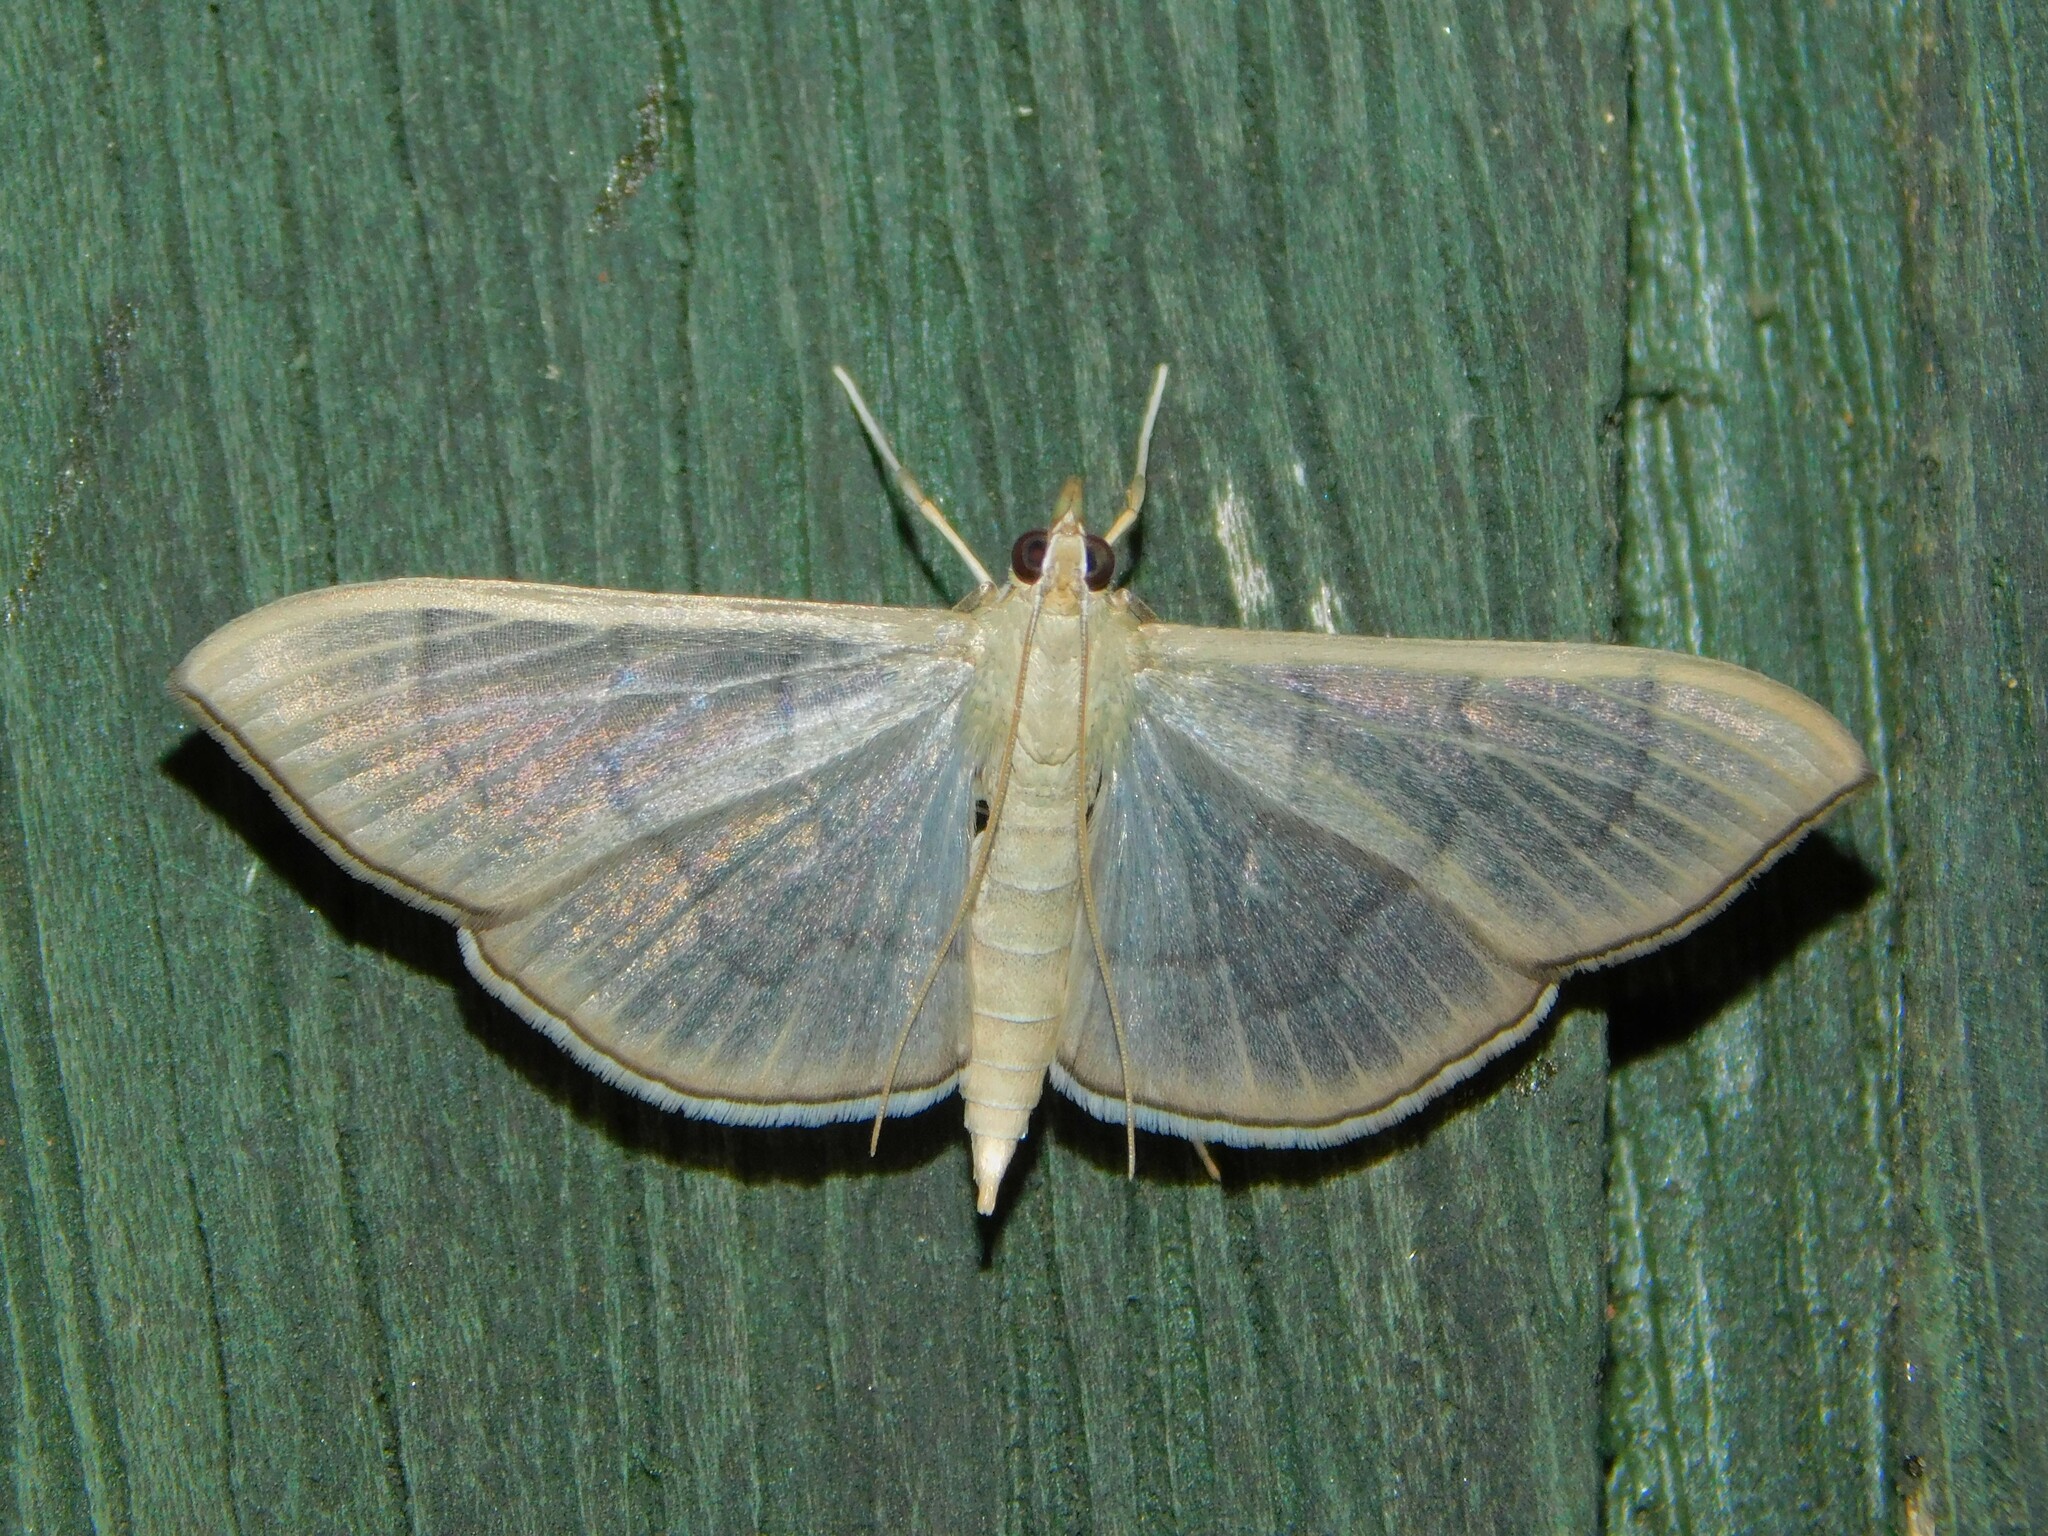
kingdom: Animalia
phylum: Arthropoda
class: Insecta
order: Lepidoptera
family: Crambidae
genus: Lamprophaia
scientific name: Lamprophaia ablactalis
